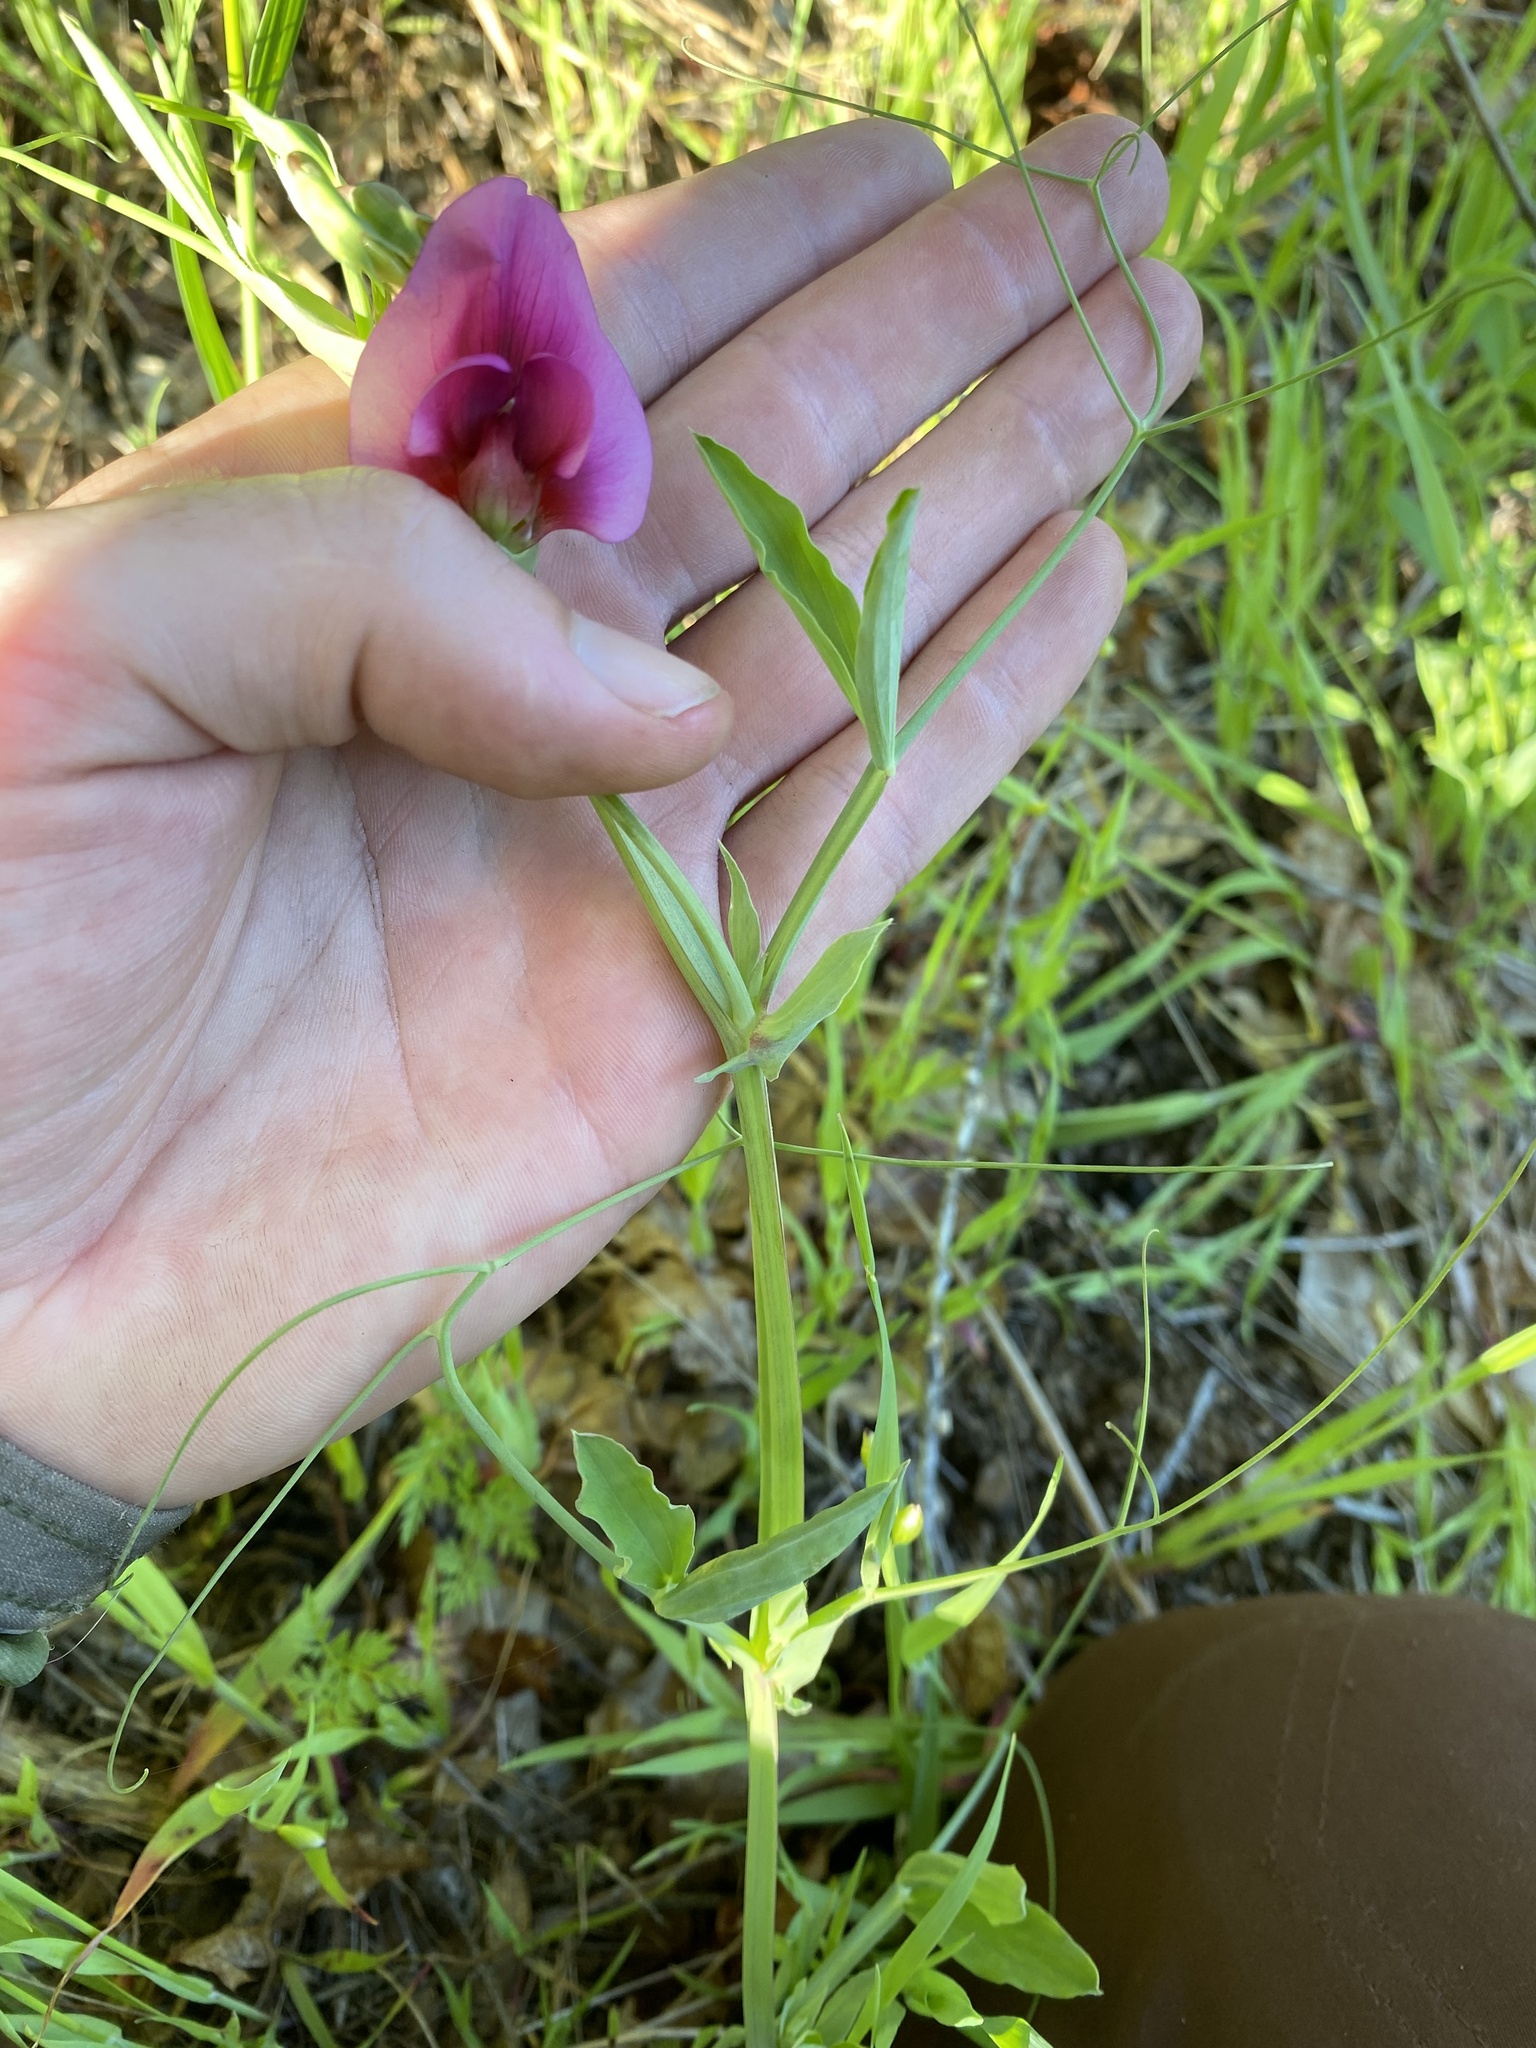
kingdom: Plantae
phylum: Tracheophyta
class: Magnoliopsida
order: Fabales
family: Fabaceae
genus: Lathyrus
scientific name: Lathyrus tingitanus
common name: Tangier pea
